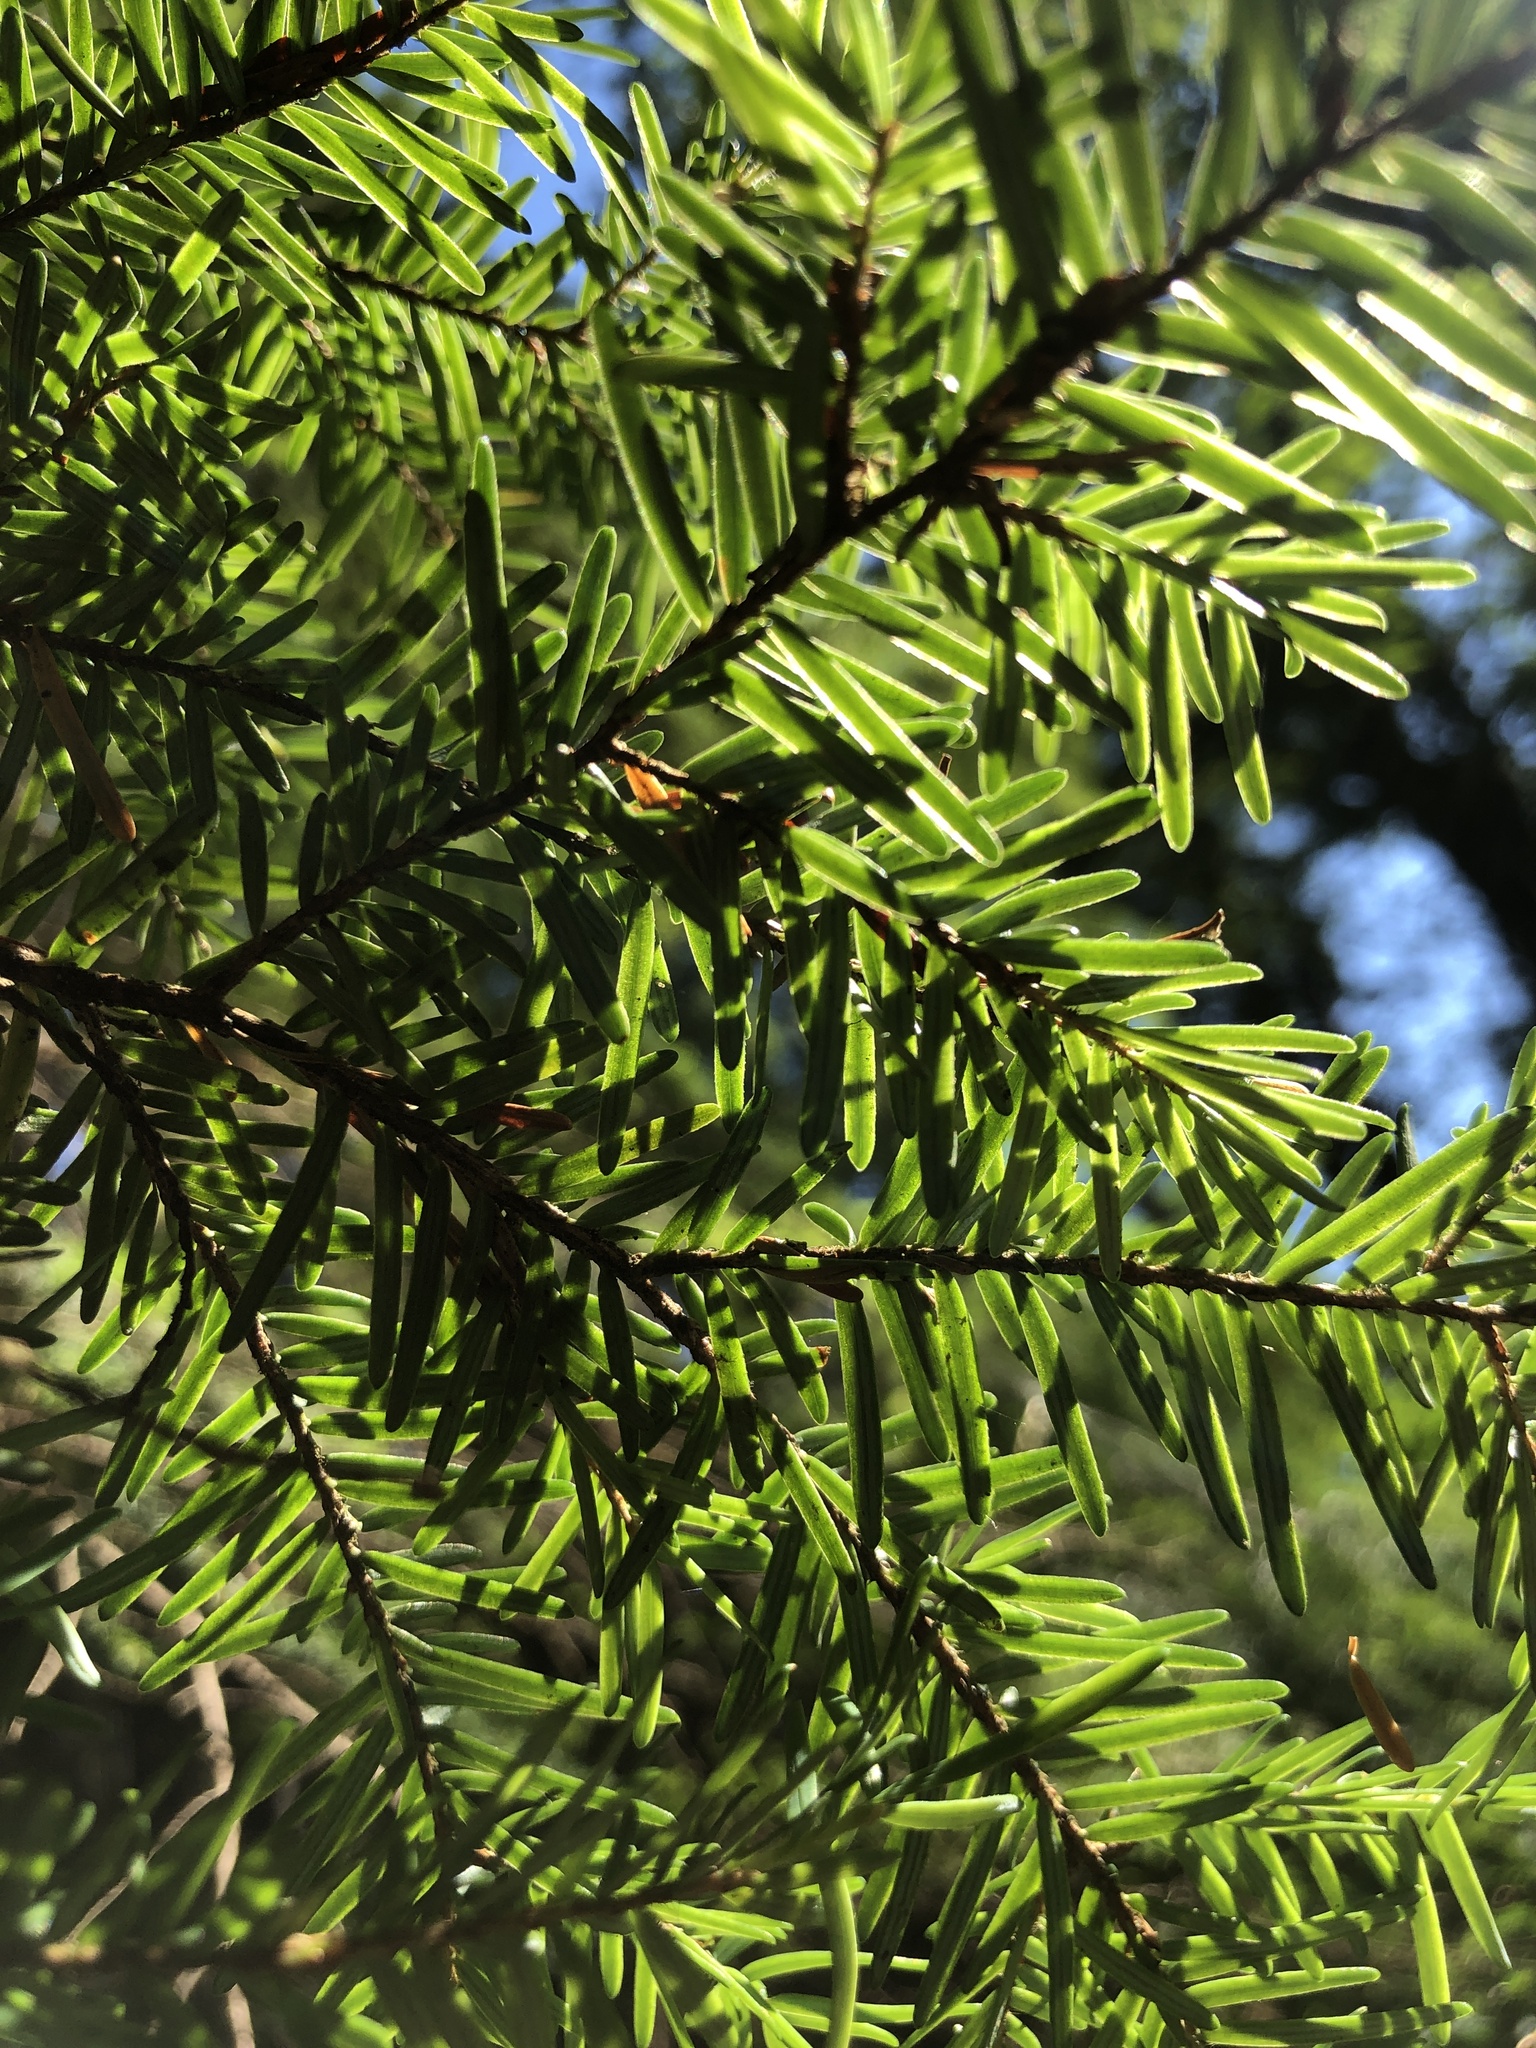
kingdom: Plantae
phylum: Tracheophyta
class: Pinopsida
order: Pinales
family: Pinaceae
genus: Tsuga
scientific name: Tsuga heterophylla
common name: Western hemlock
